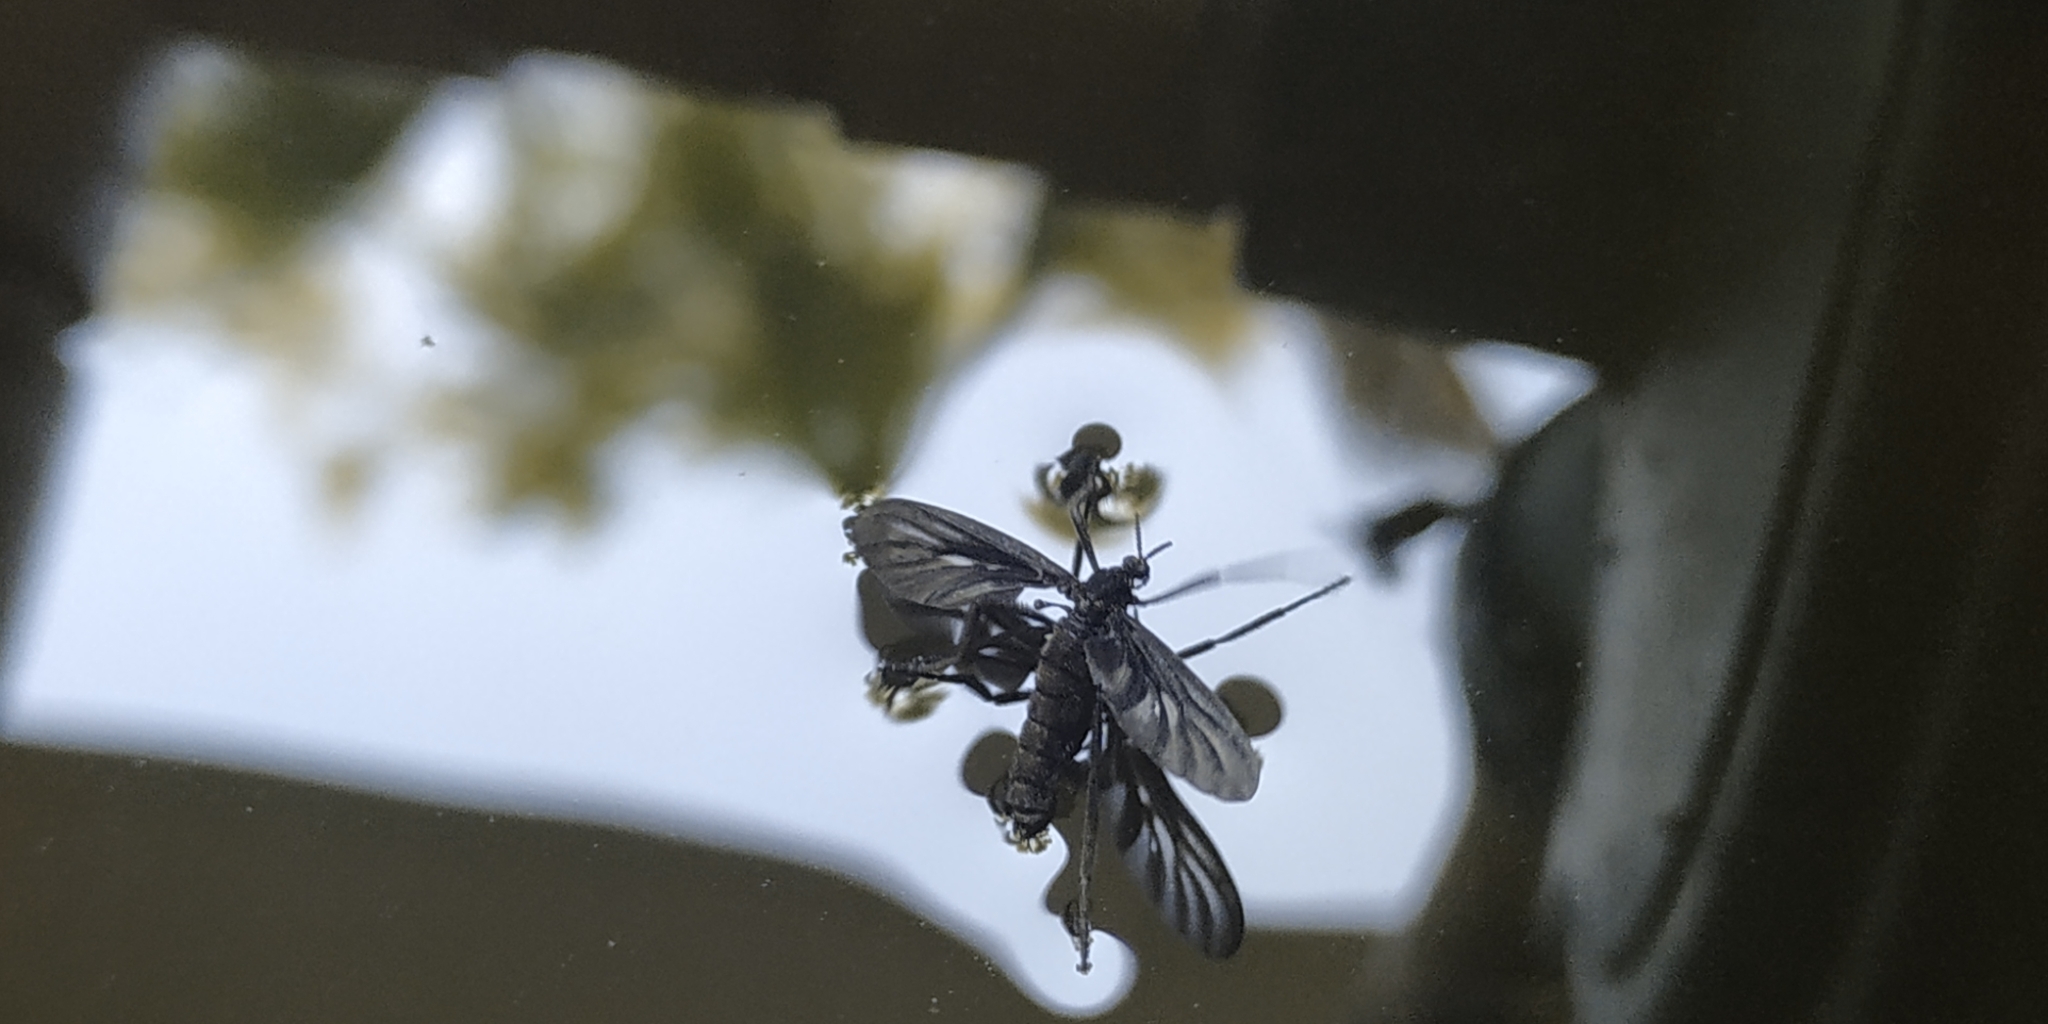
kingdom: Animalia
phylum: Arthropoda
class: Insecta
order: Diptera
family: Bibionidae
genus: Plecia
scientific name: Plecia plagiata
